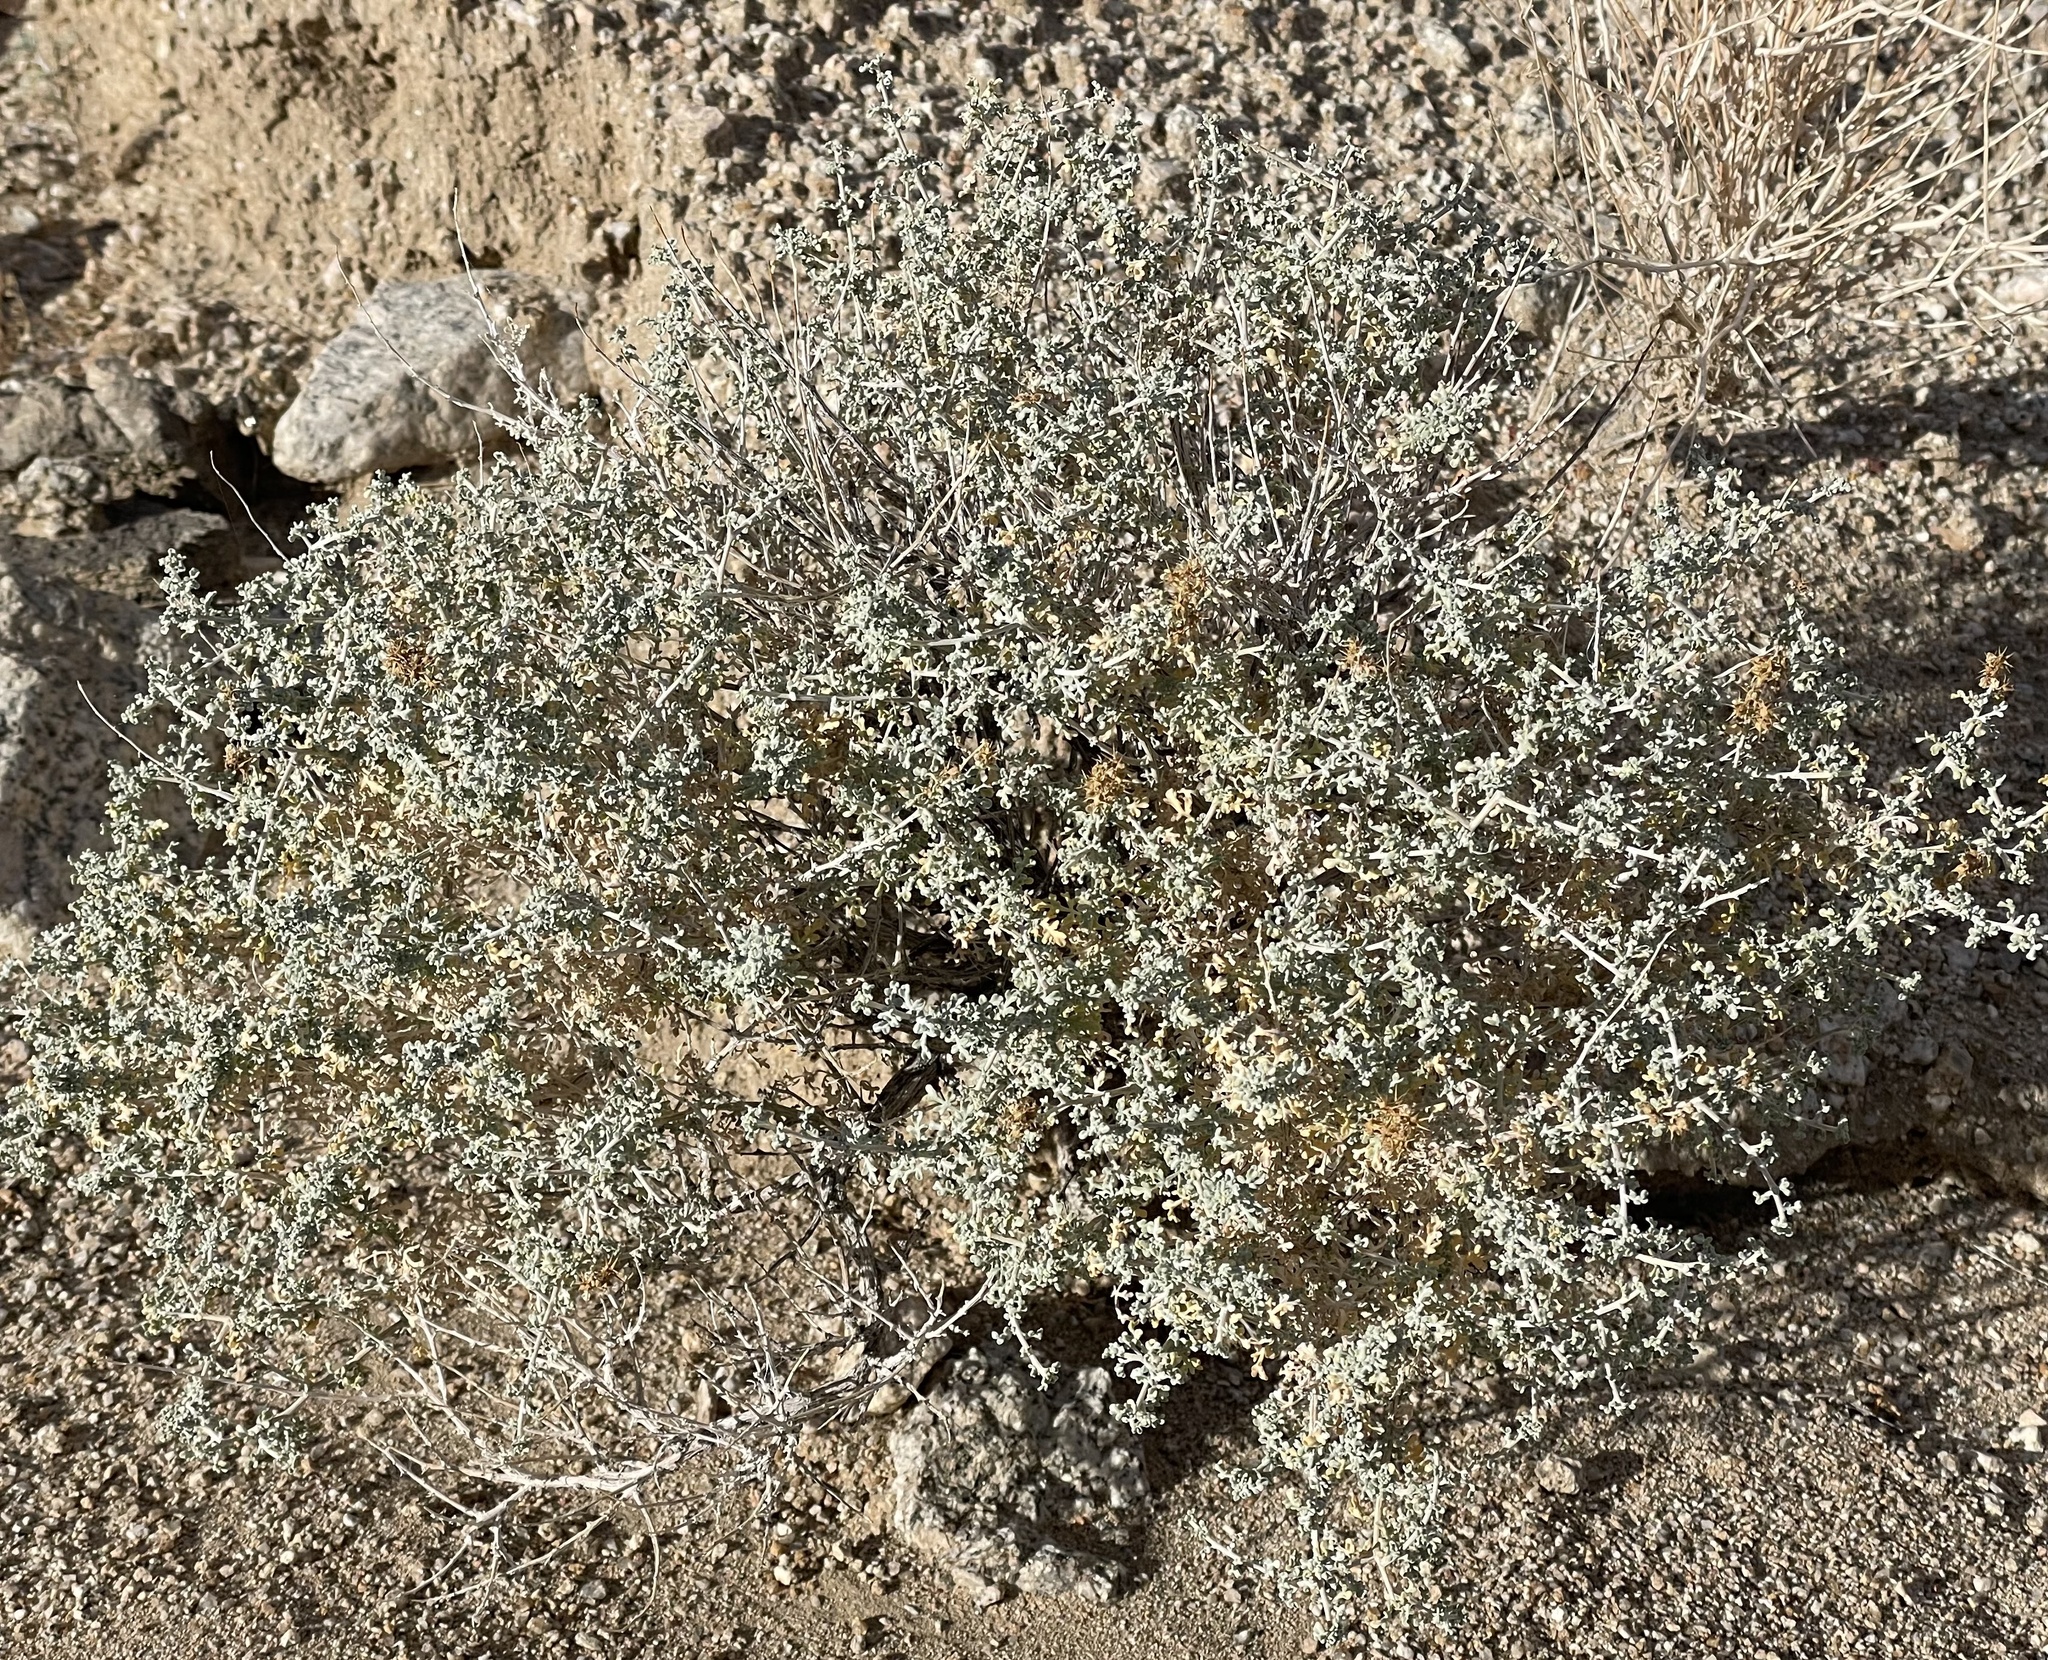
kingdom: Plantae
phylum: Tracheophyta
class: Magnoliopsida
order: Asterales
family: Asteraceae
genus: Ambrosia
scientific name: Ambrosia dumosa
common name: Bur-sage
